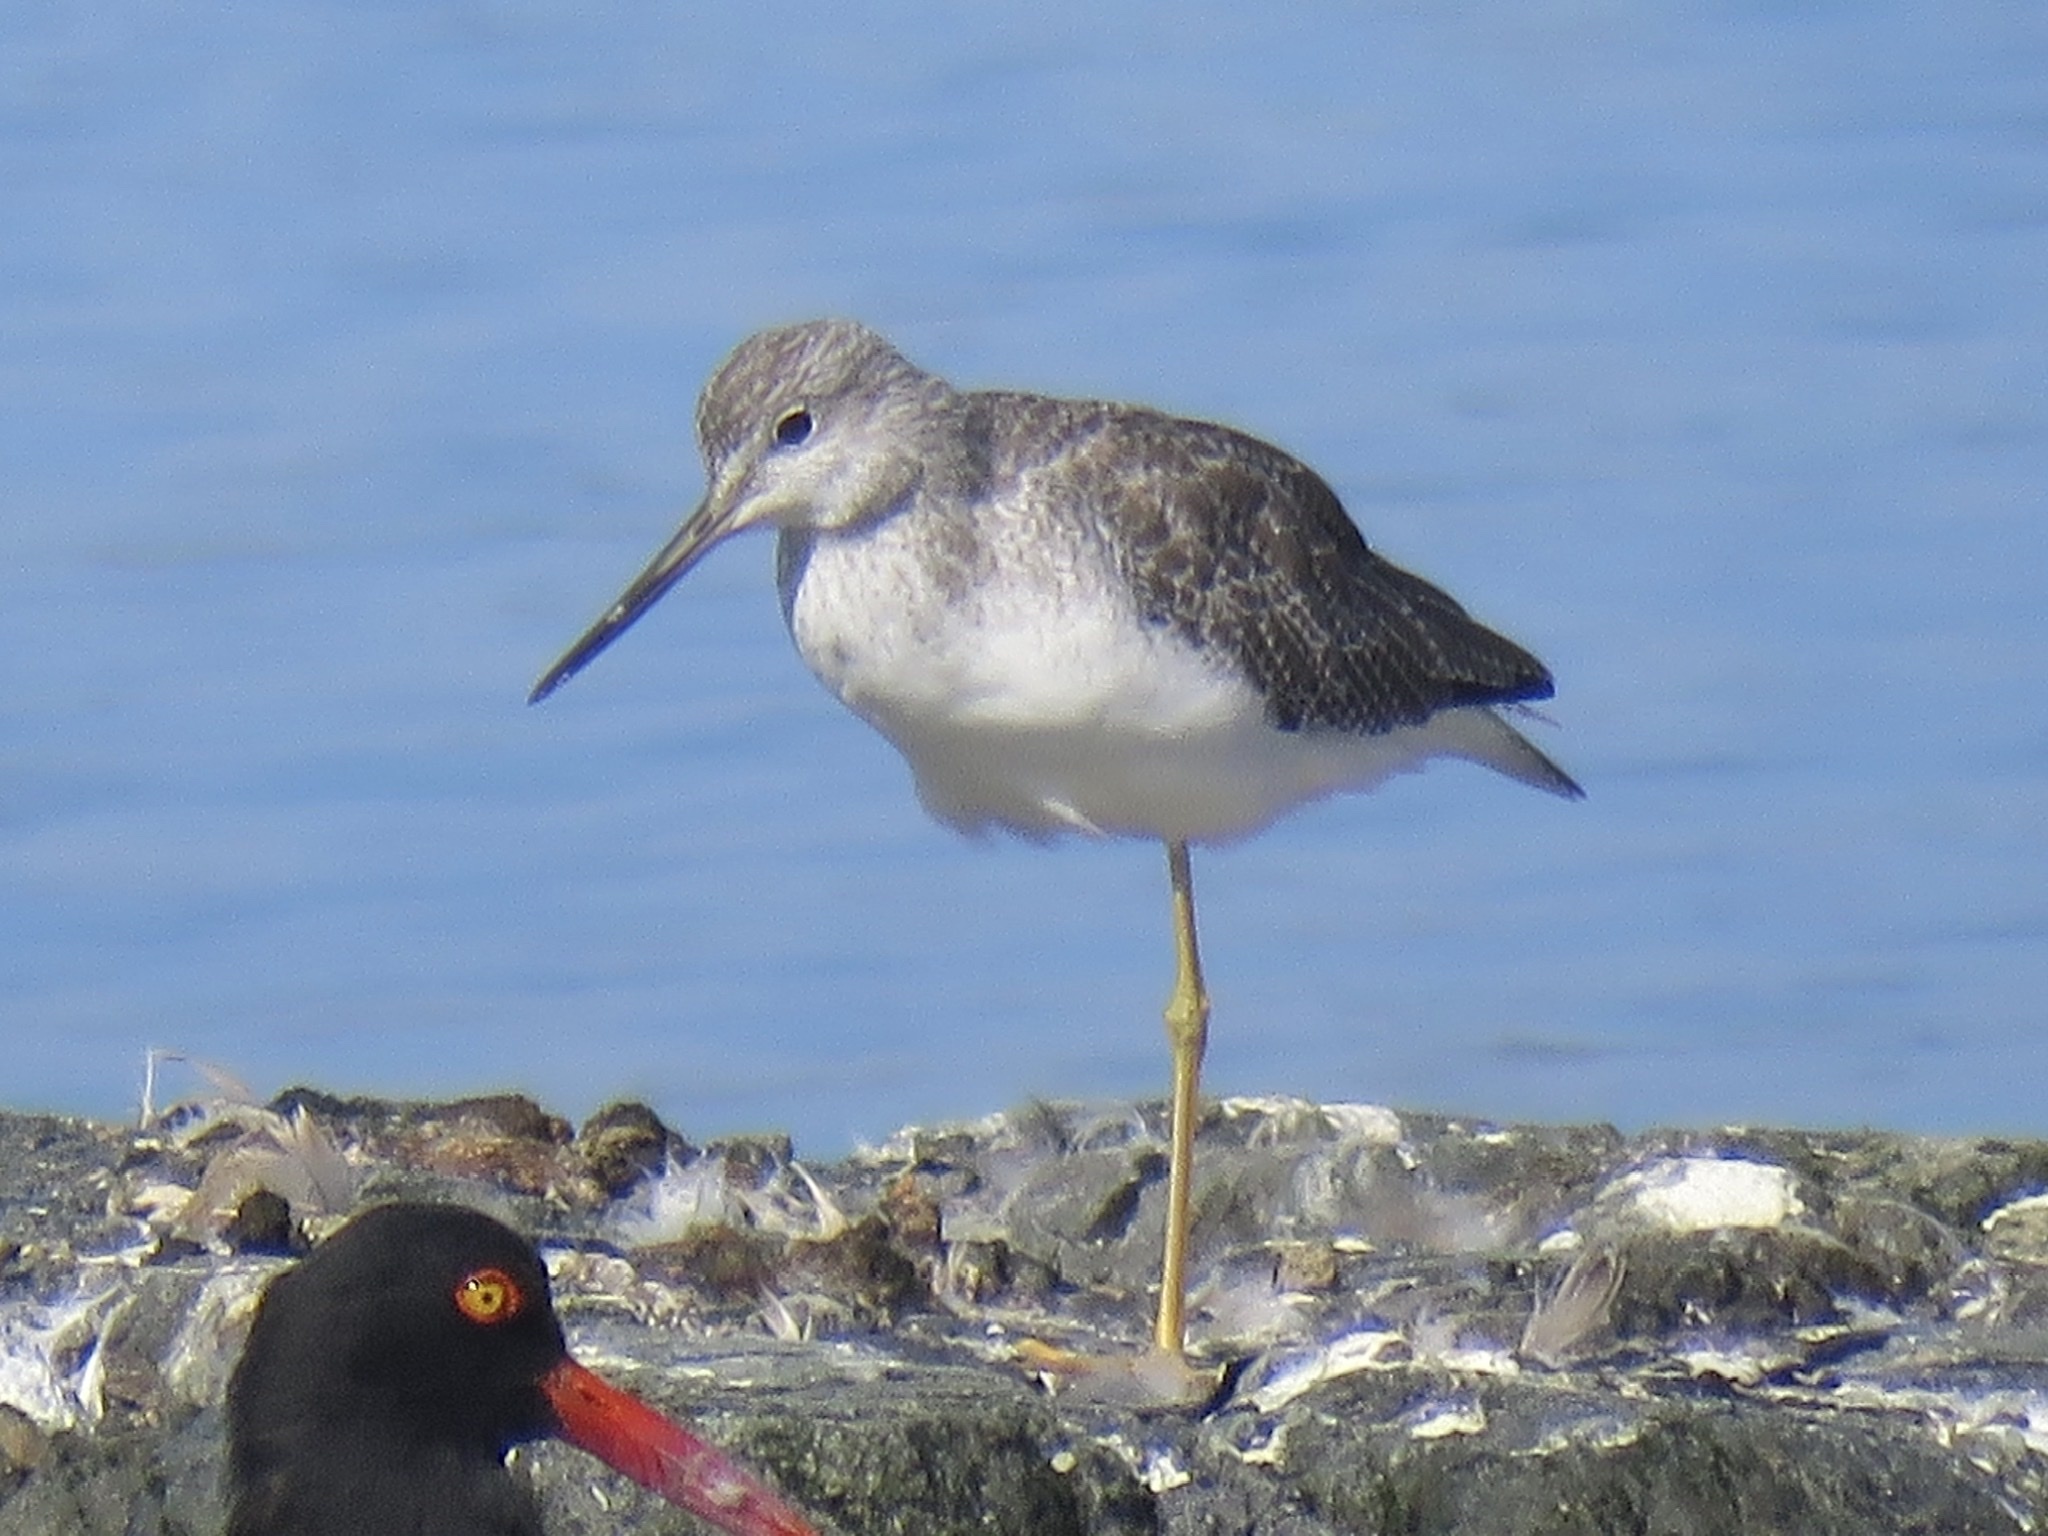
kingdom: Animalia
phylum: Chordata
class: Aves
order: Charadriiformes
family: Scolopacidae
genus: Tringa
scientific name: Tringa melanoleuca
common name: Greater yellowlegs
